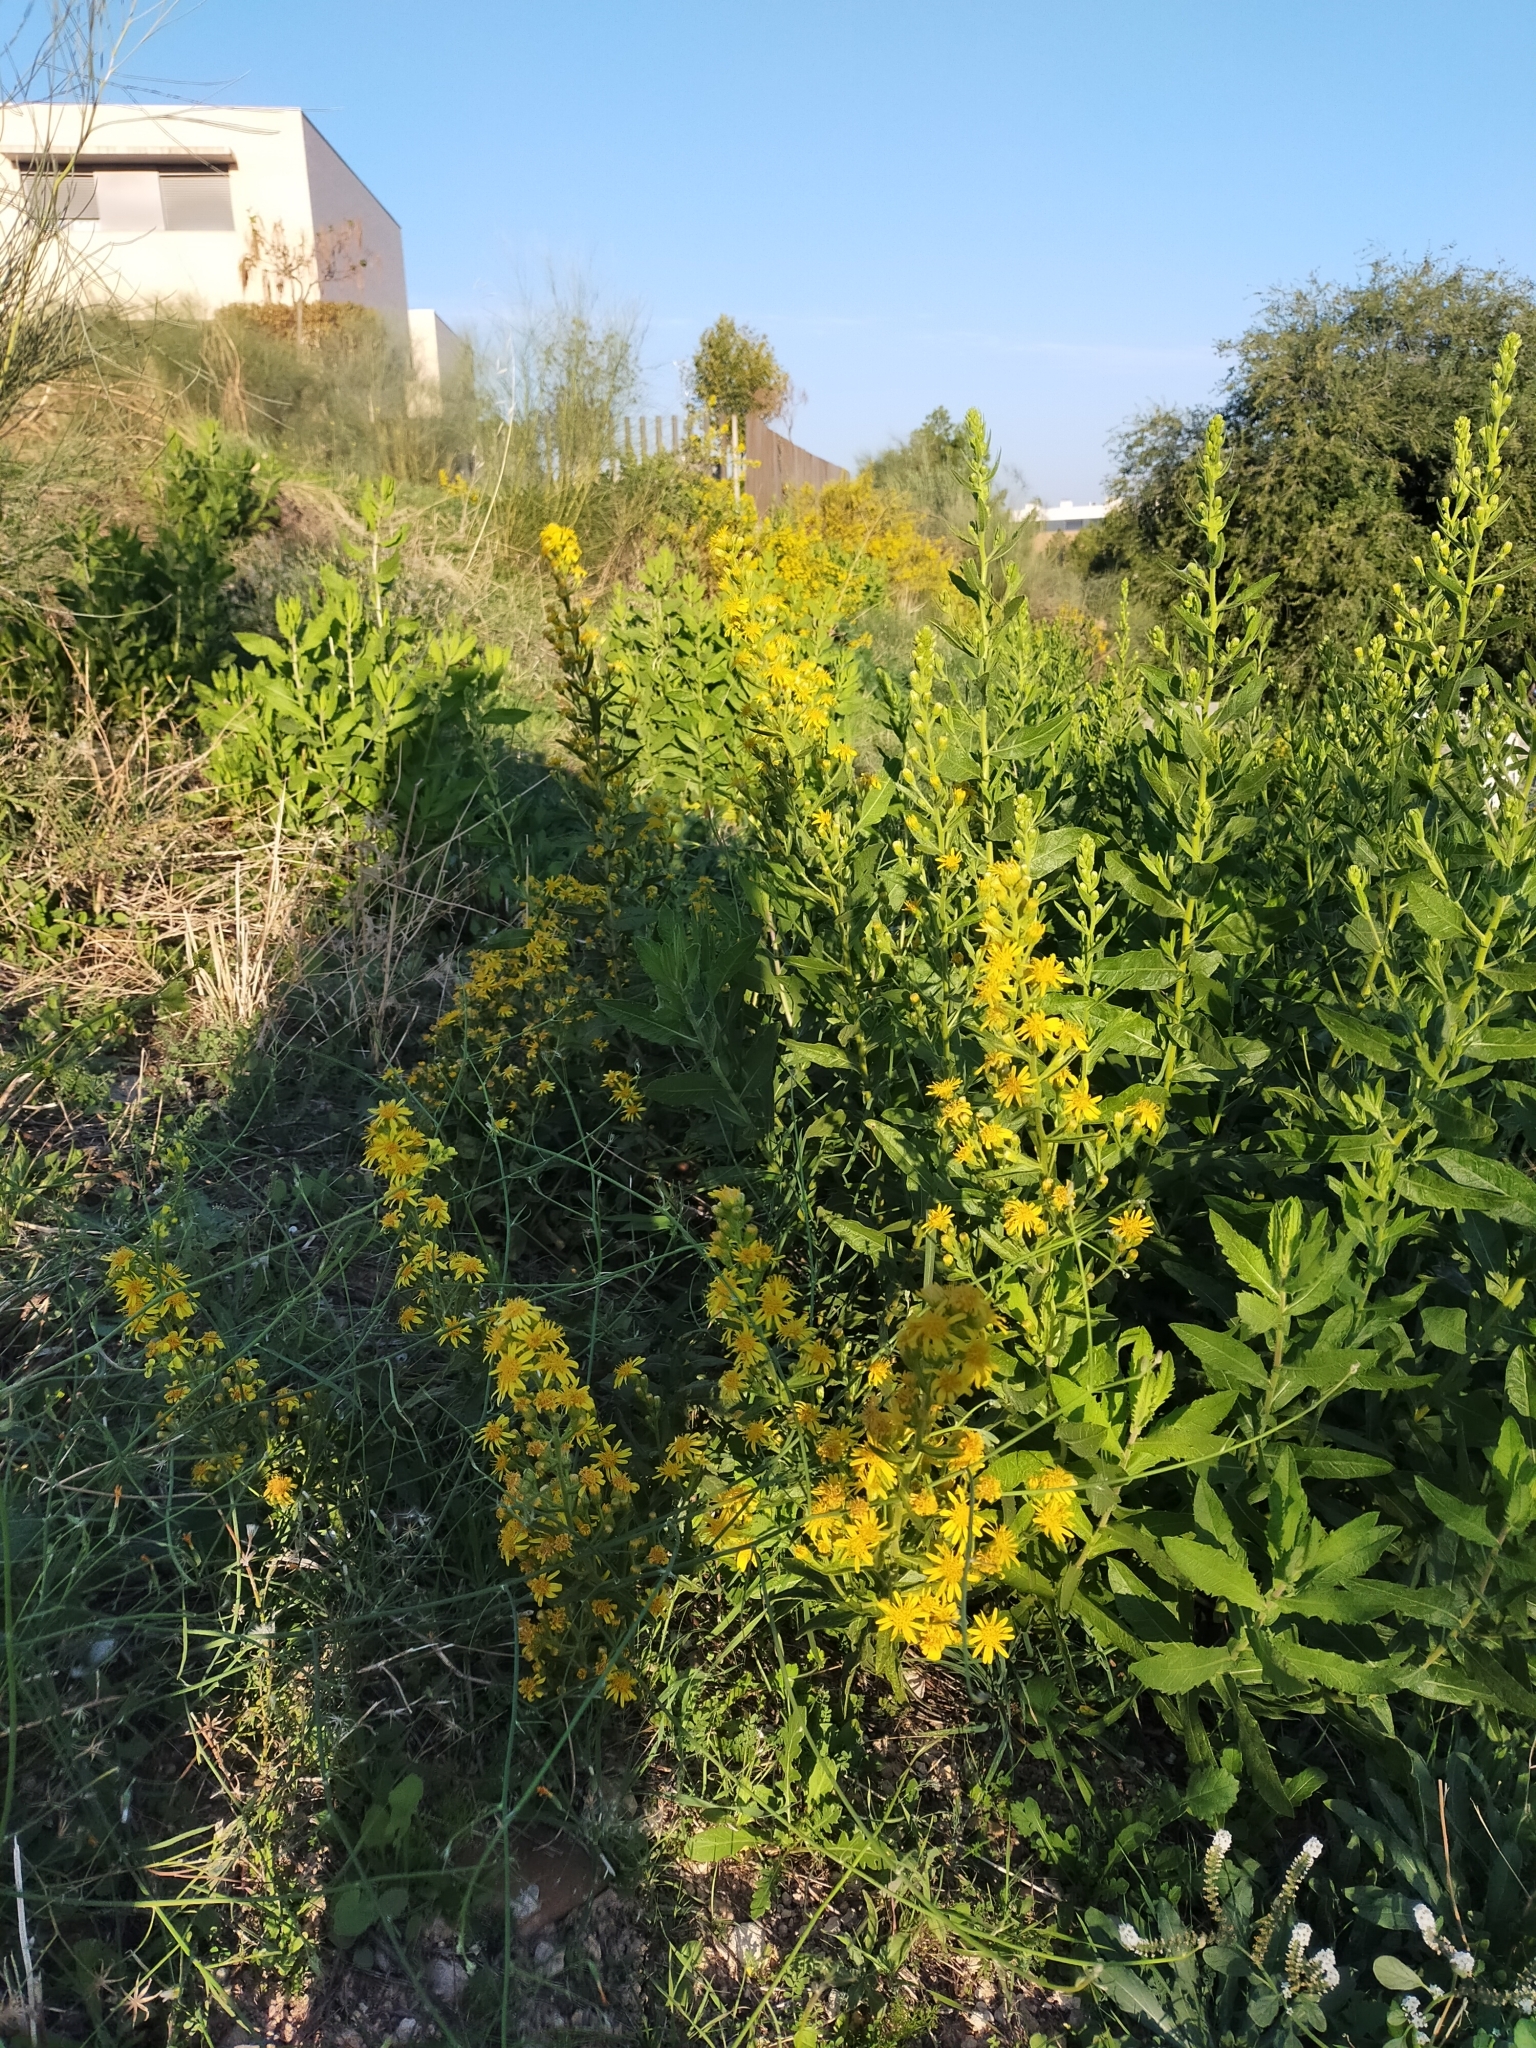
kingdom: Plantae
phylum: Tracheophyta
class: Magnoliopsida
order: Asterales
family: Asteraceae
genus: Dittrichia
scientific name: Dittrichia viscosa
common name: Woody fleabane
